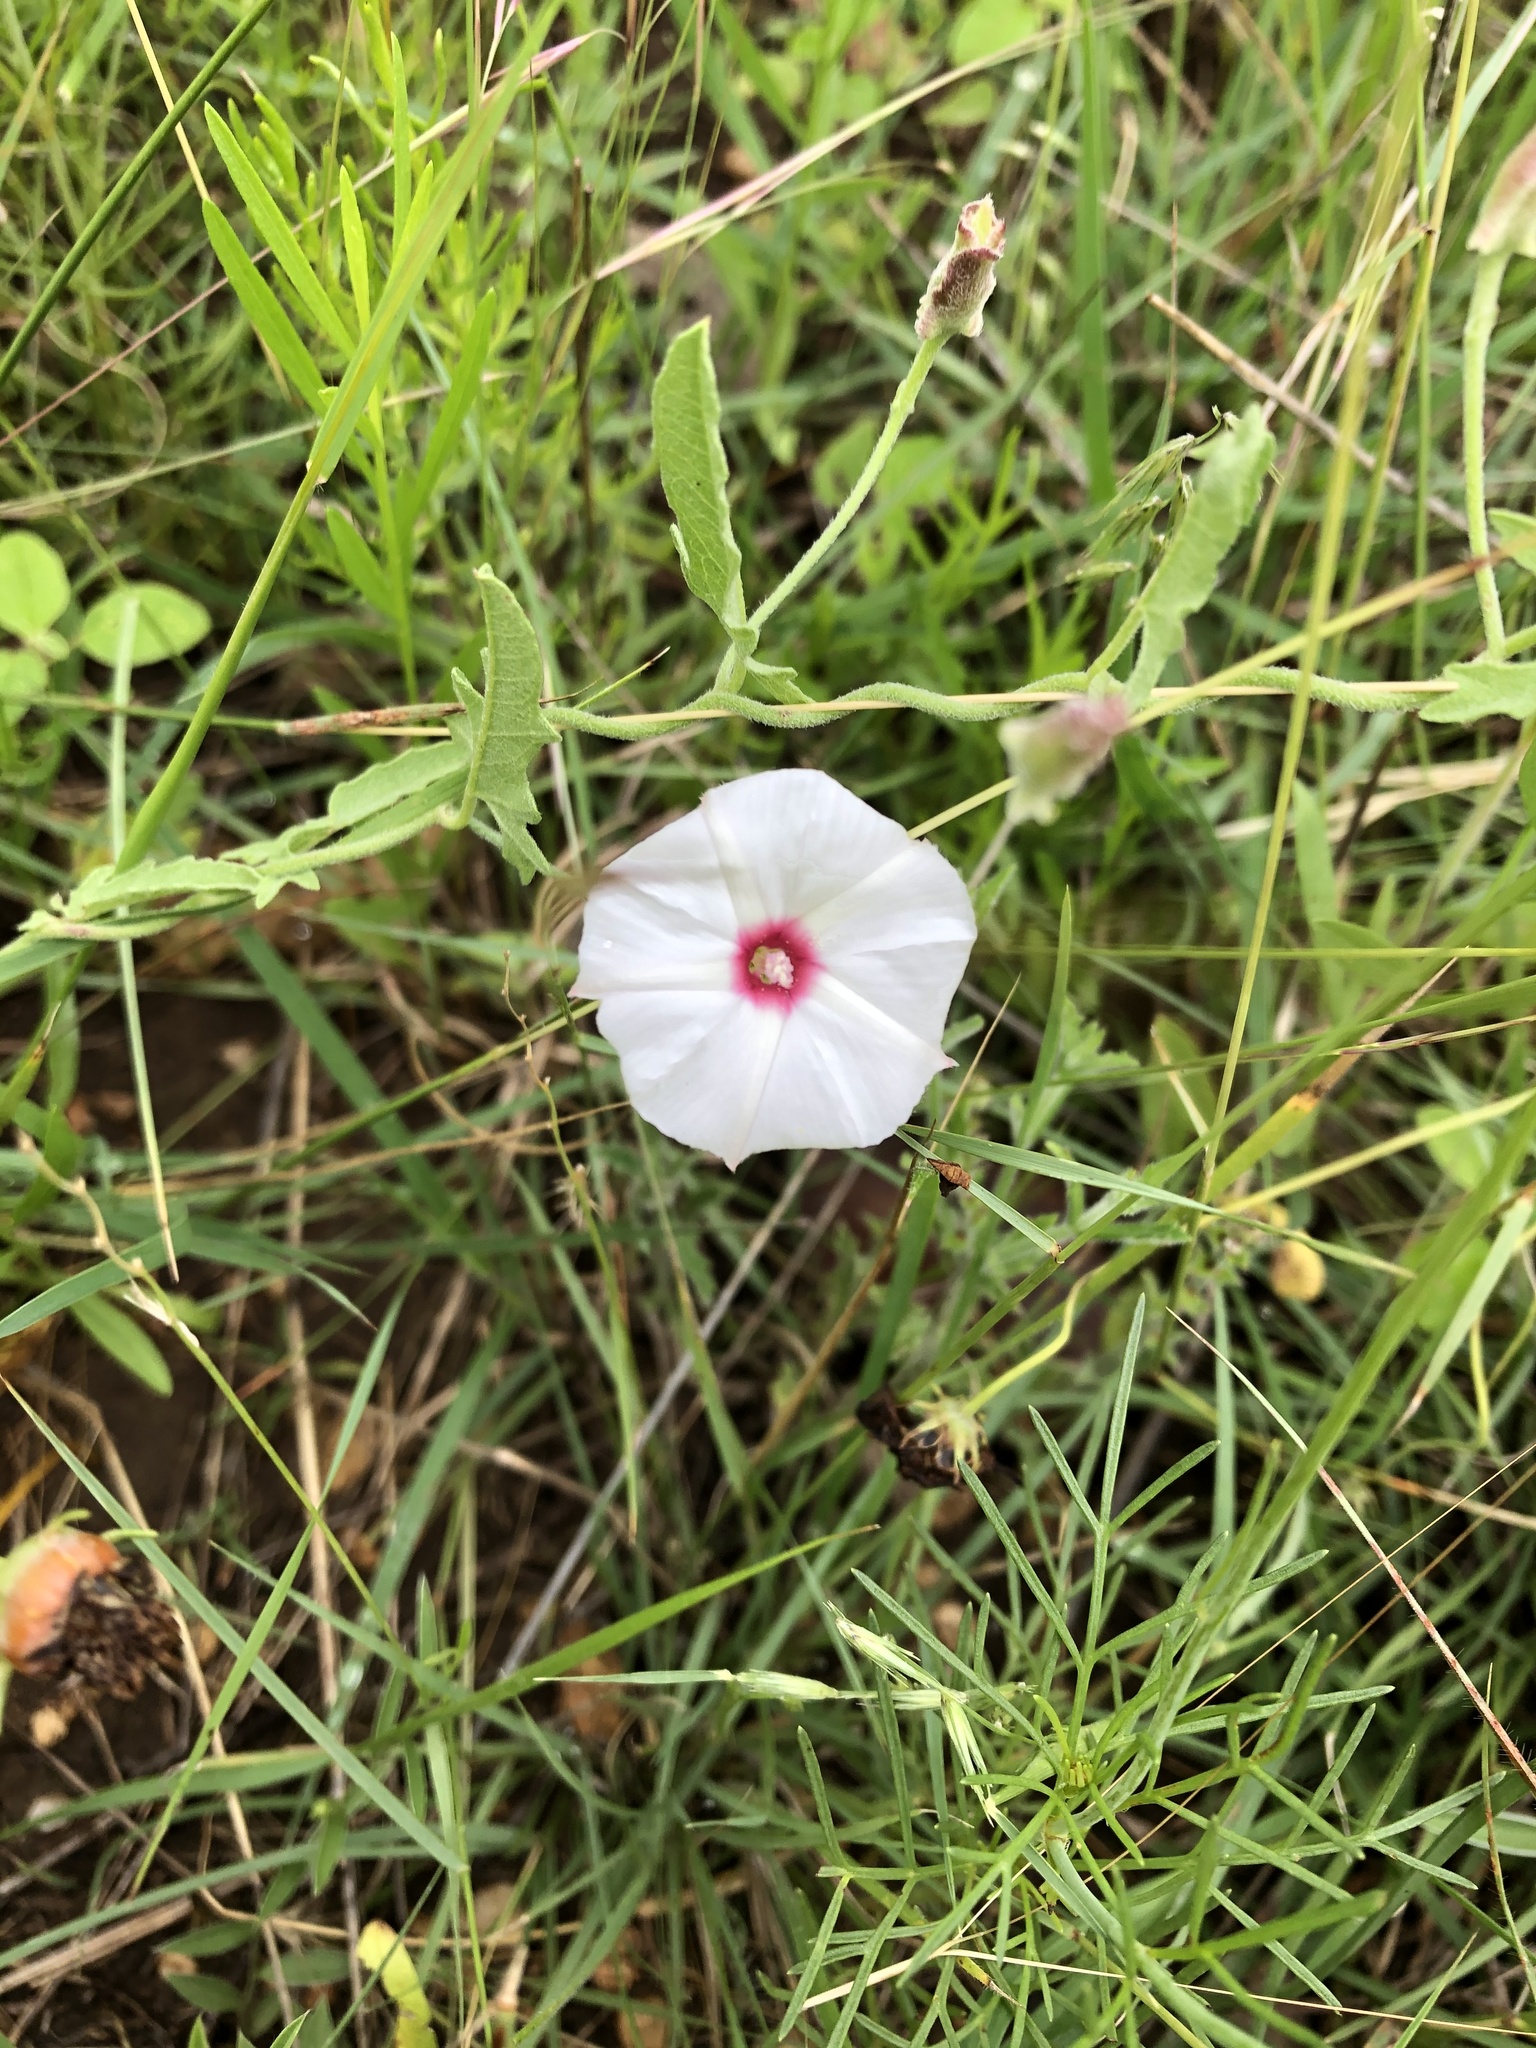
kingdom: Plantae
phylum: Tracheophyta
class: Magnoliopsida
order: Solanales
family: Convolvulaceae
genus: Convolvulus
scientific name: Convolvulus equitans
